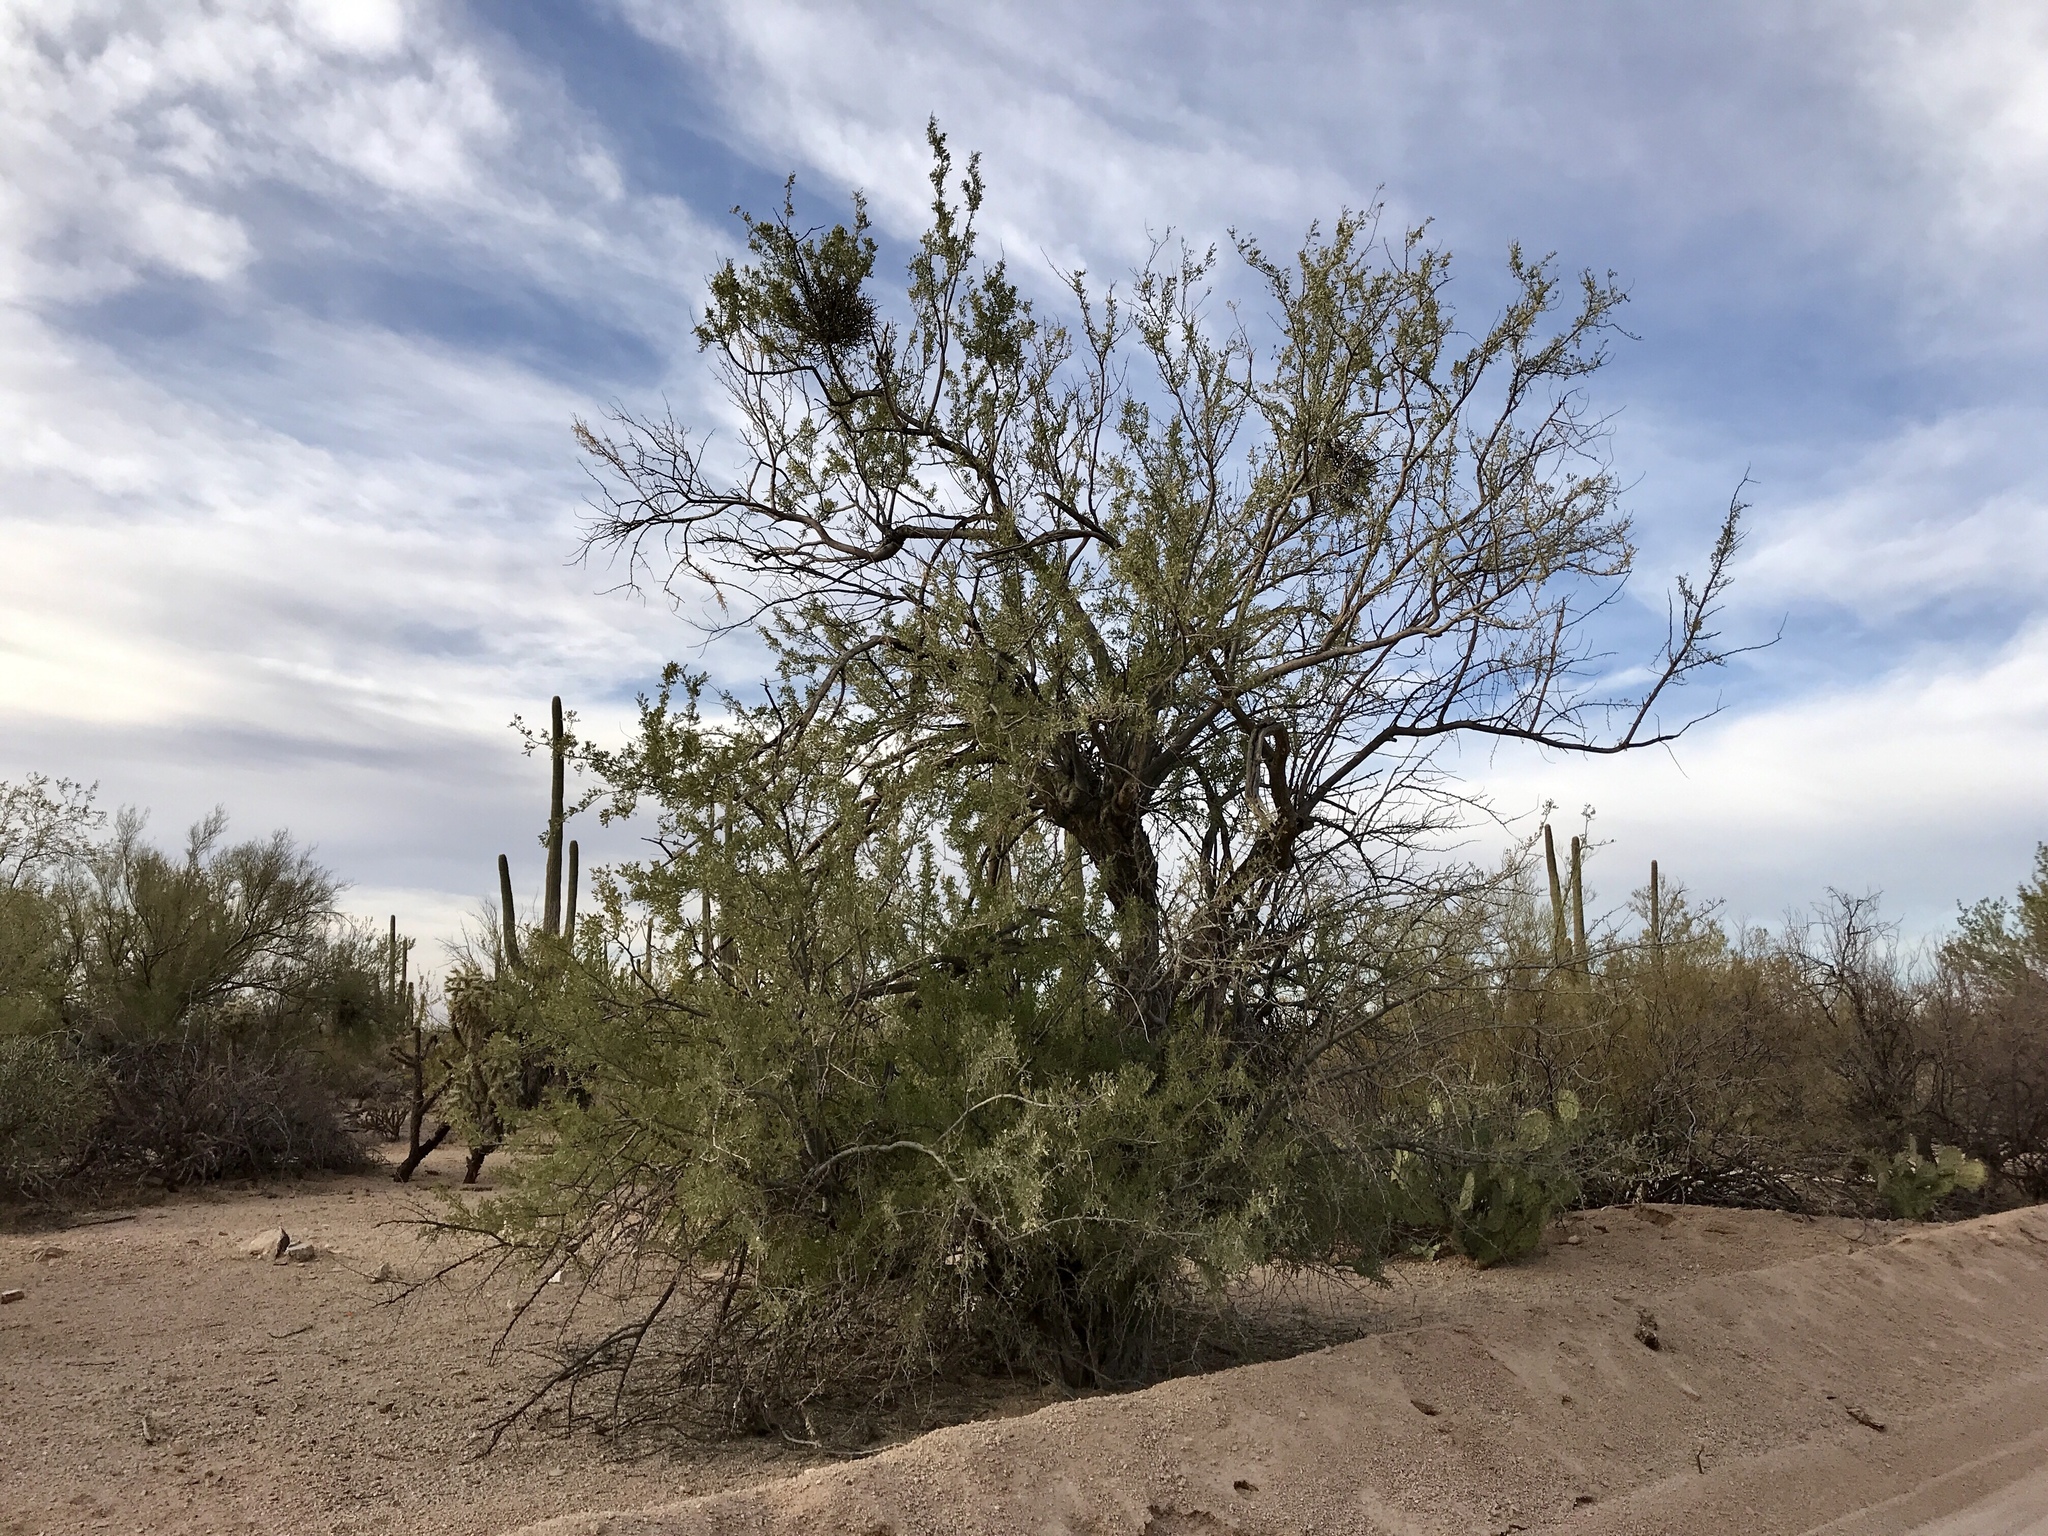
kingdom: Plantae
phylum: Tracheophyta
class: Magnoliopsida
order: Fabales
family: Fabaceae
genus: Olneya
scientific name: Olneya tesota
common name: Desert ironwood
